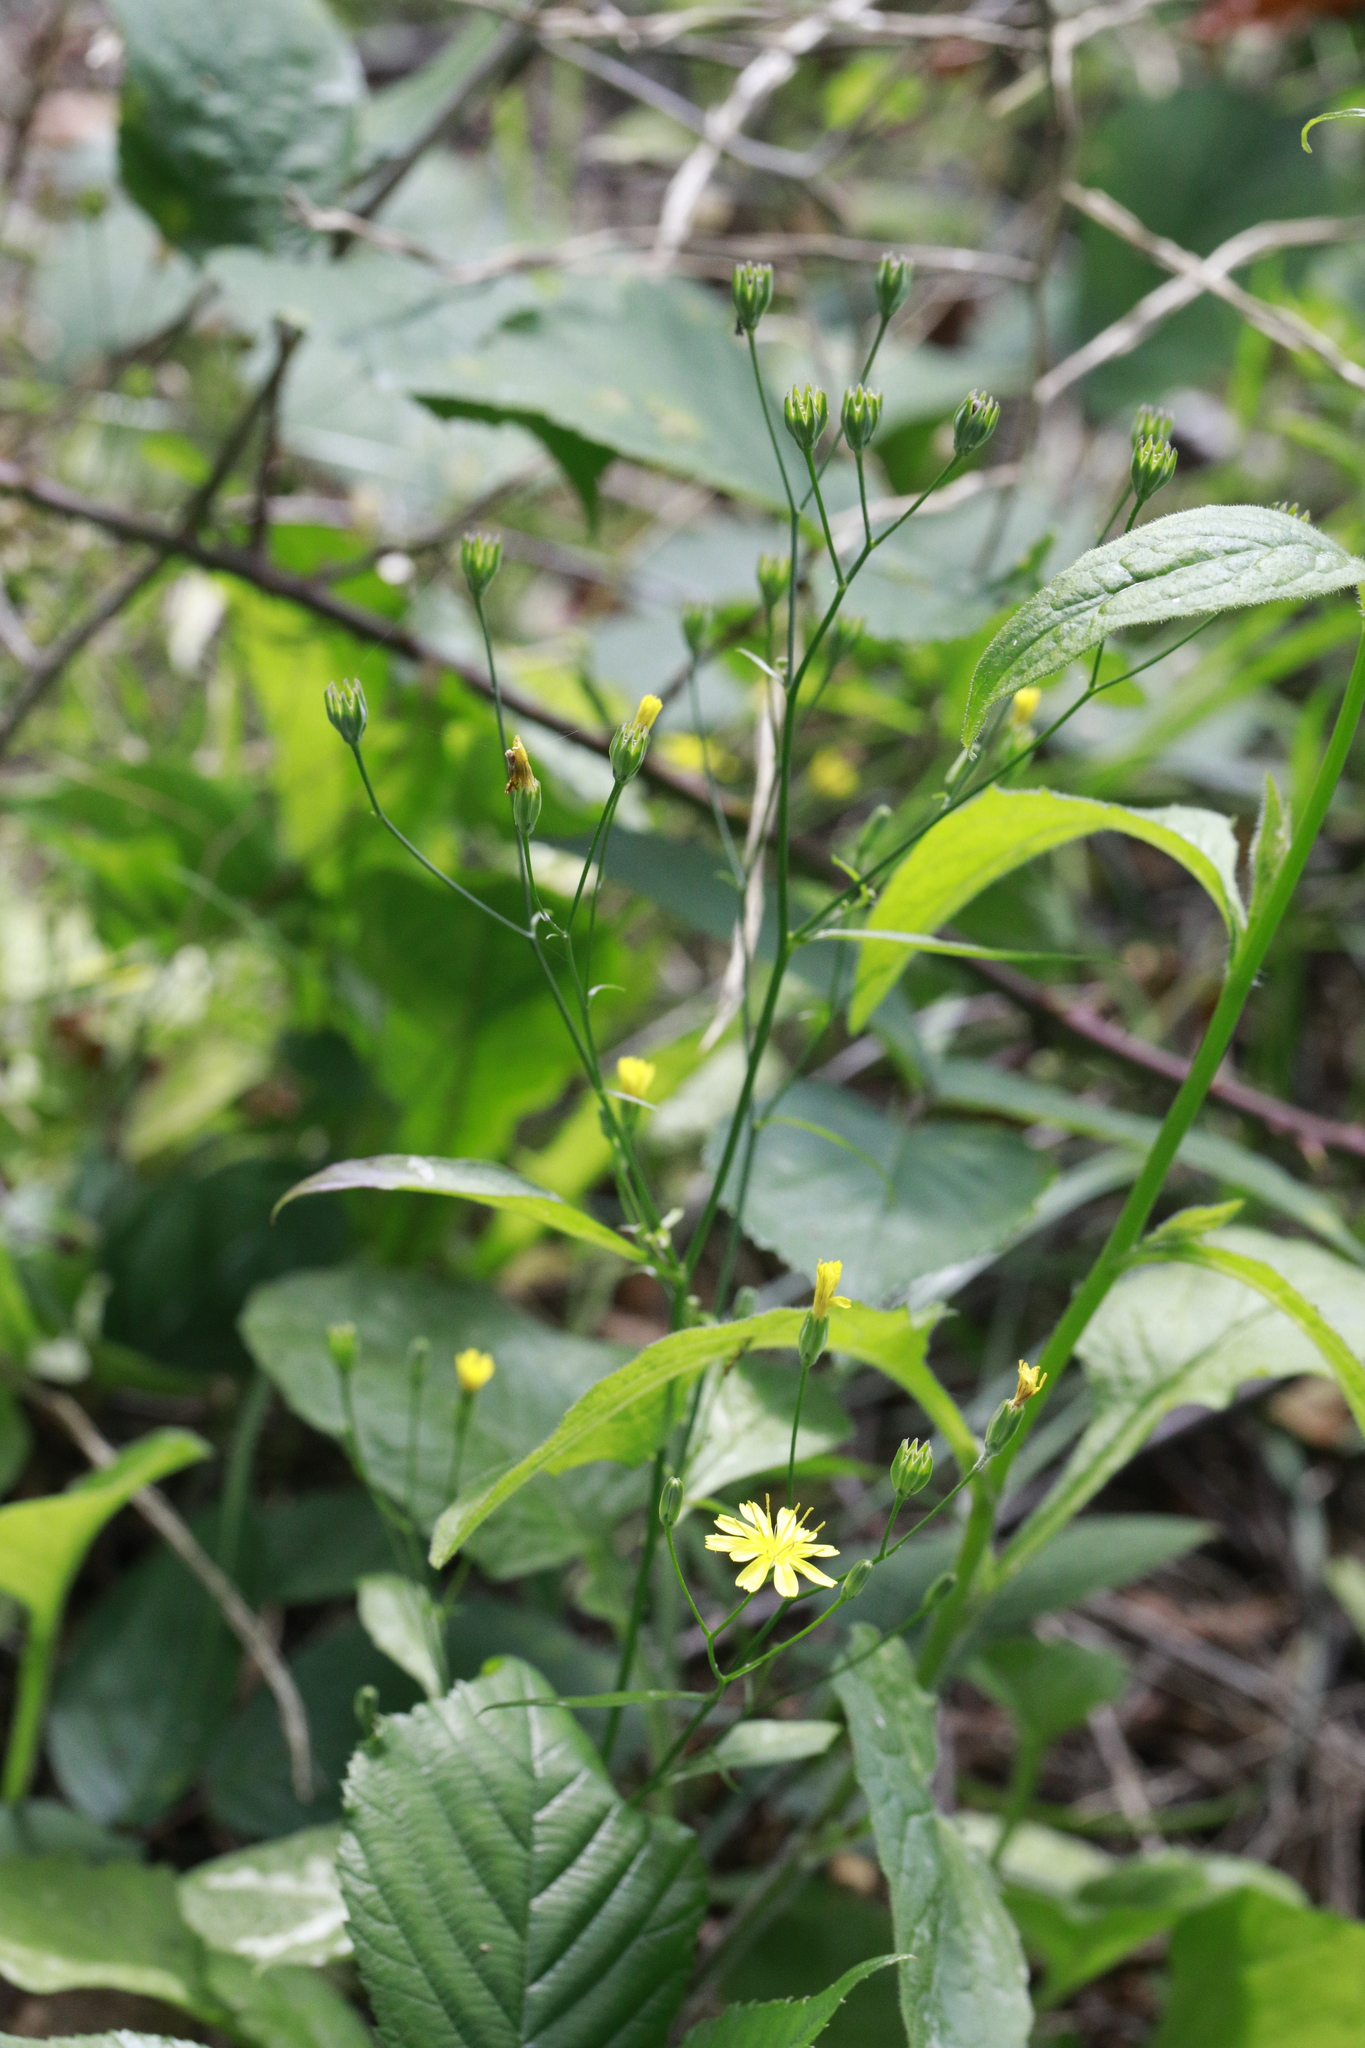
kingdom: Plantae
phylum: Tracheophyta
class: Magnoliopsida
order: Asterales
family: Asteraceae
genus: Lapsana
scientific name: Lapsana communis
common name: Nipplewort
